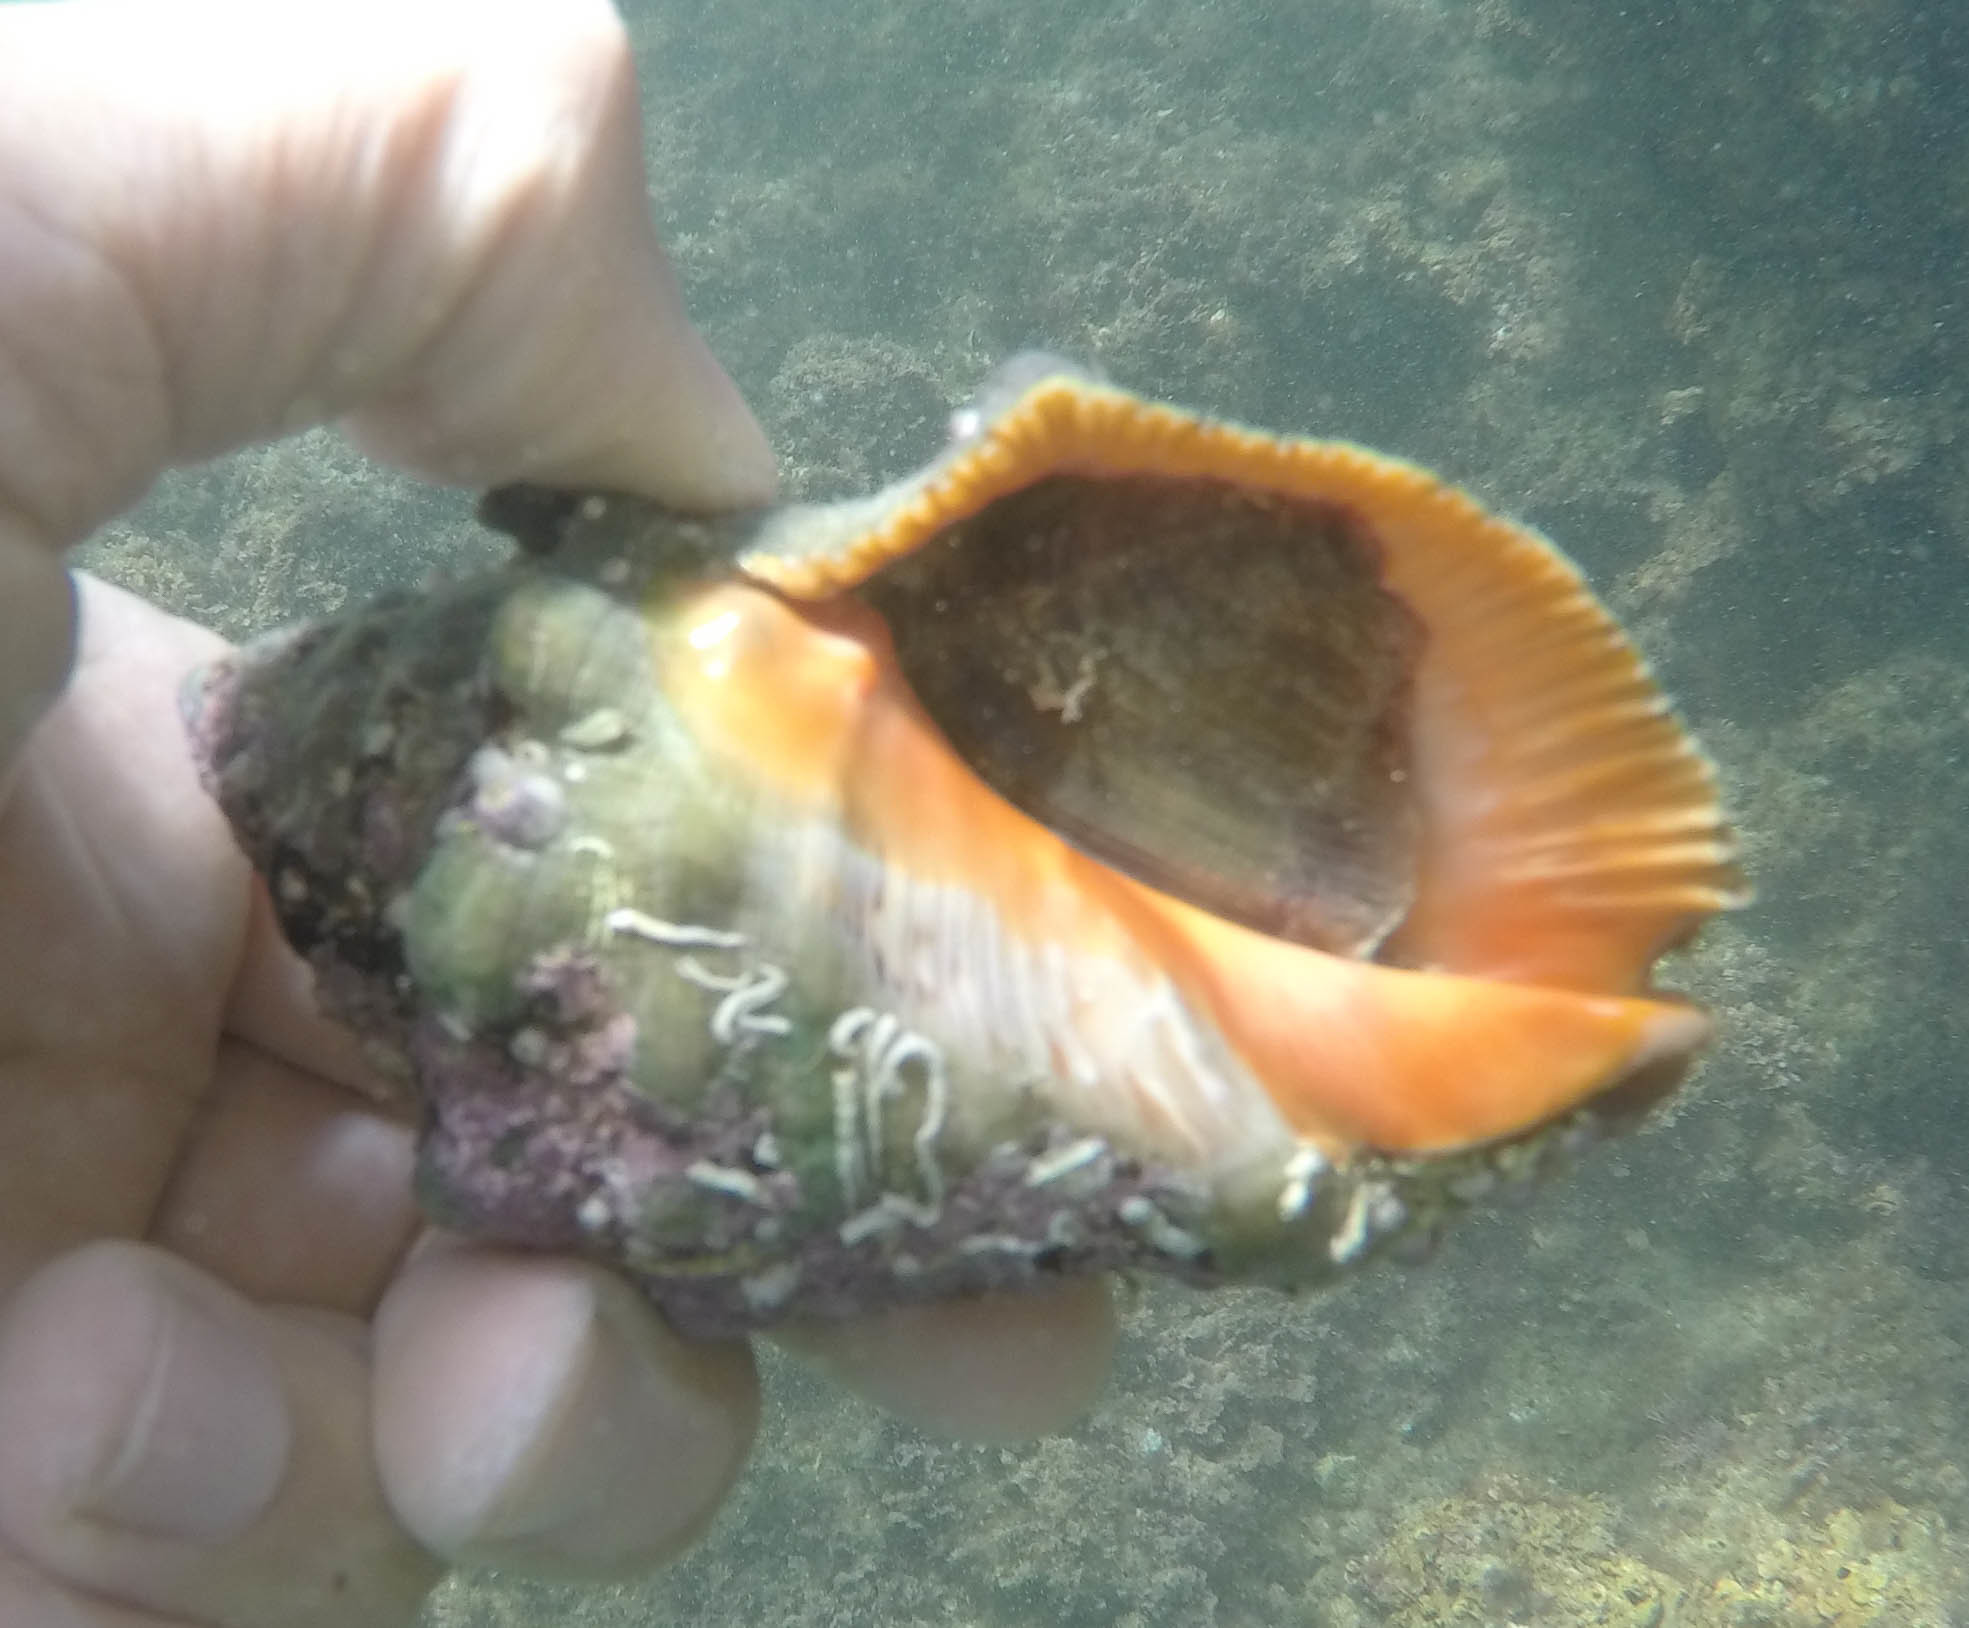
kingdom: Animalia
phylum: Mollusca
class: Gastropoda
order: Neogastropoda
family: Muricidae
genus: Stramonita
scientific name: Stramonita haemastoma
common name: Florida dog winkle
